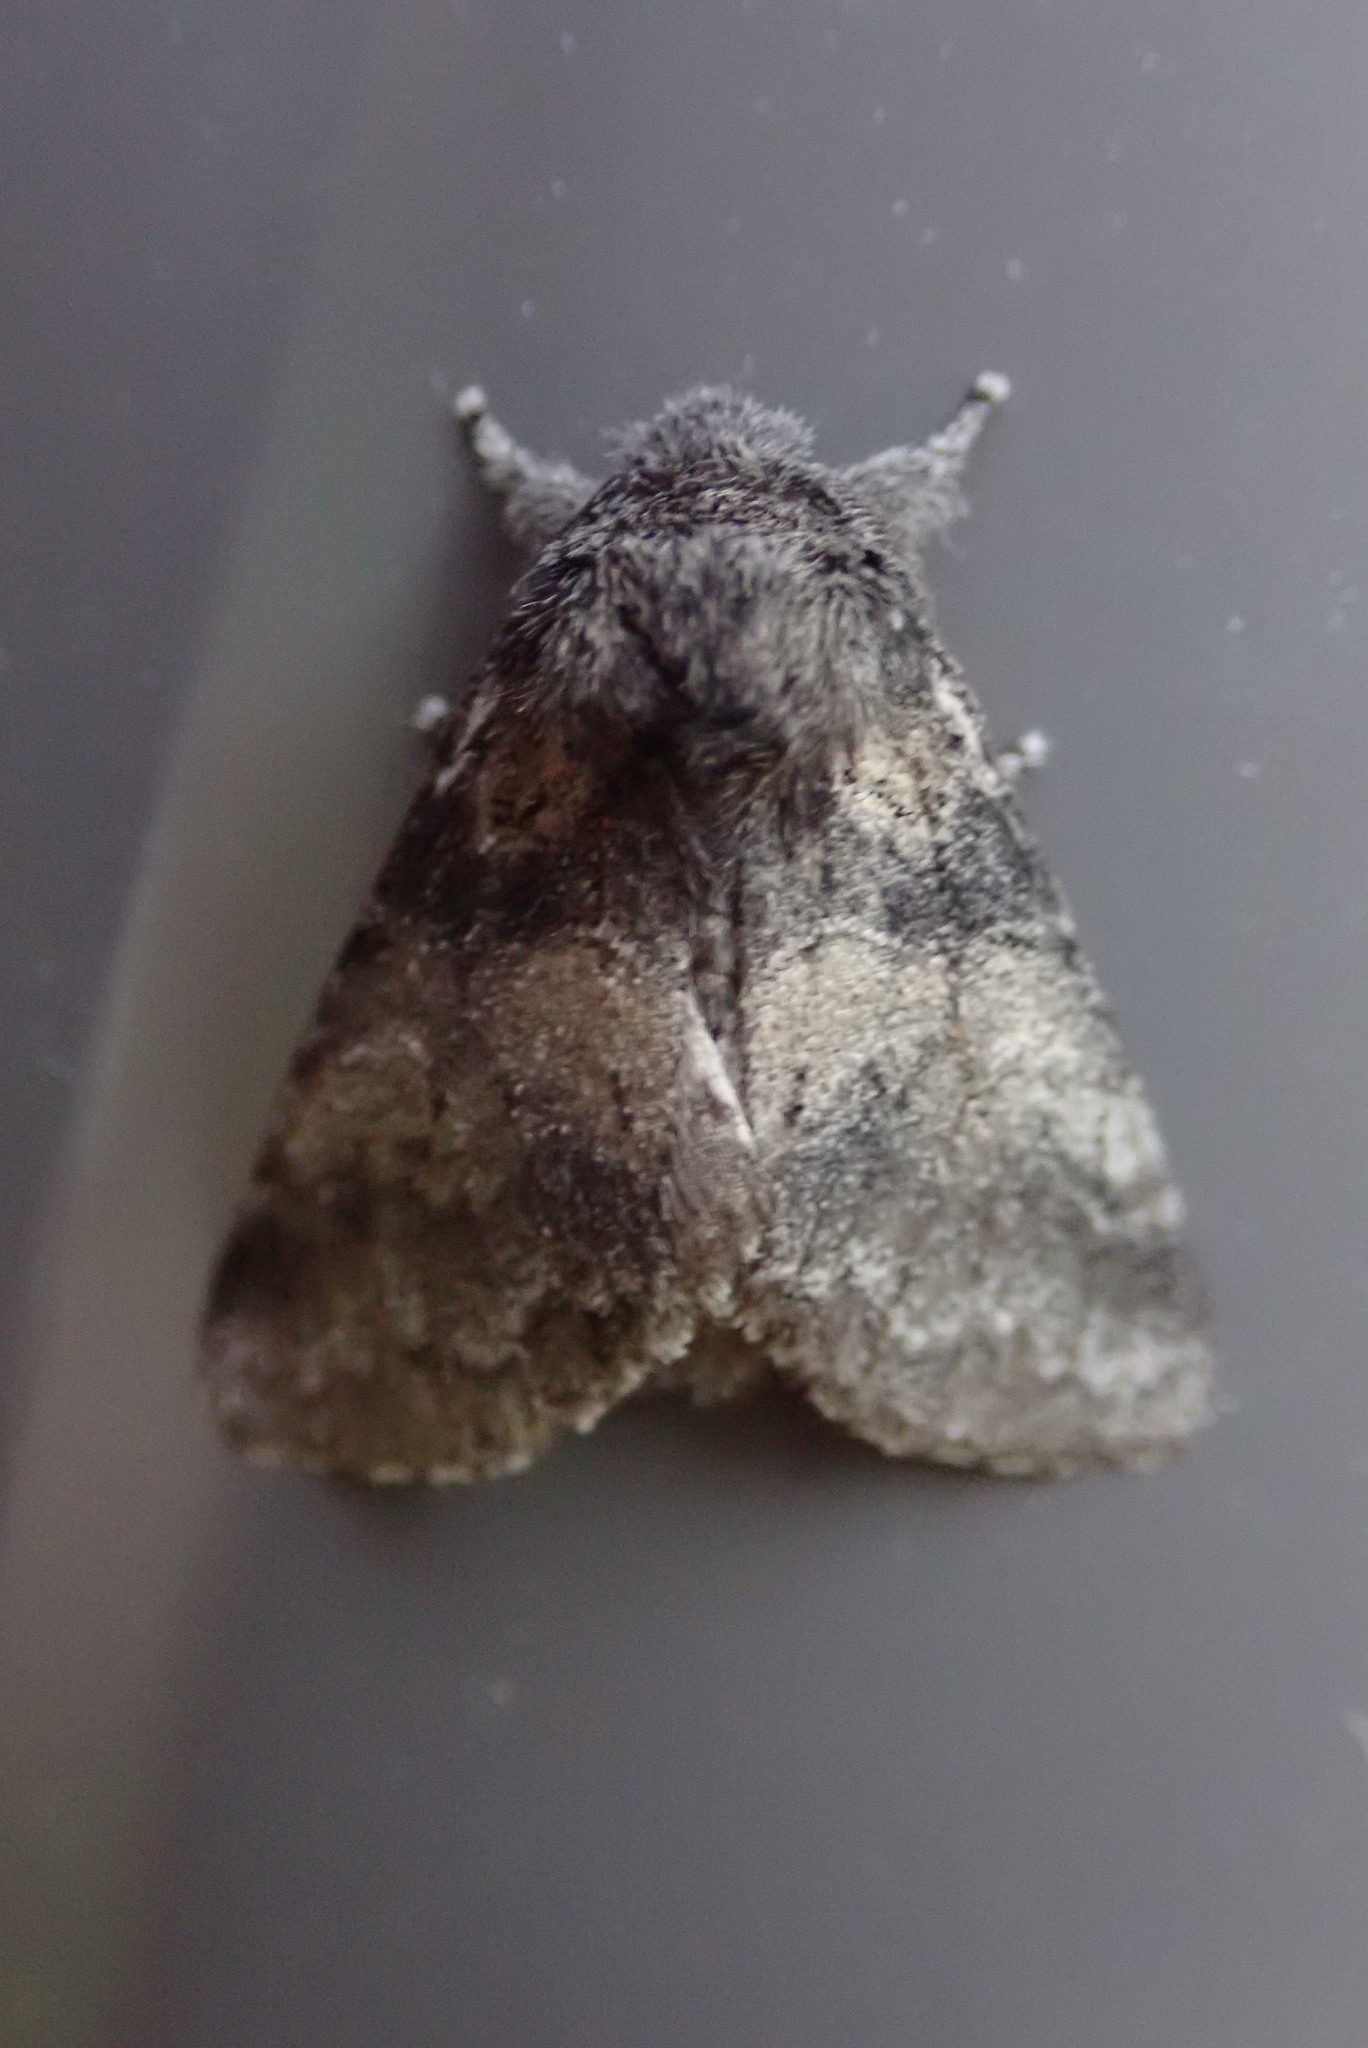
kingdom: Animalia
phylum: Arthropoda
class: Insecta
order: Lepidoptera
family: Notodontidae
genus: Gluphisia
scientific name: Gluphisia septentrionis
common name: Common gluphisia
